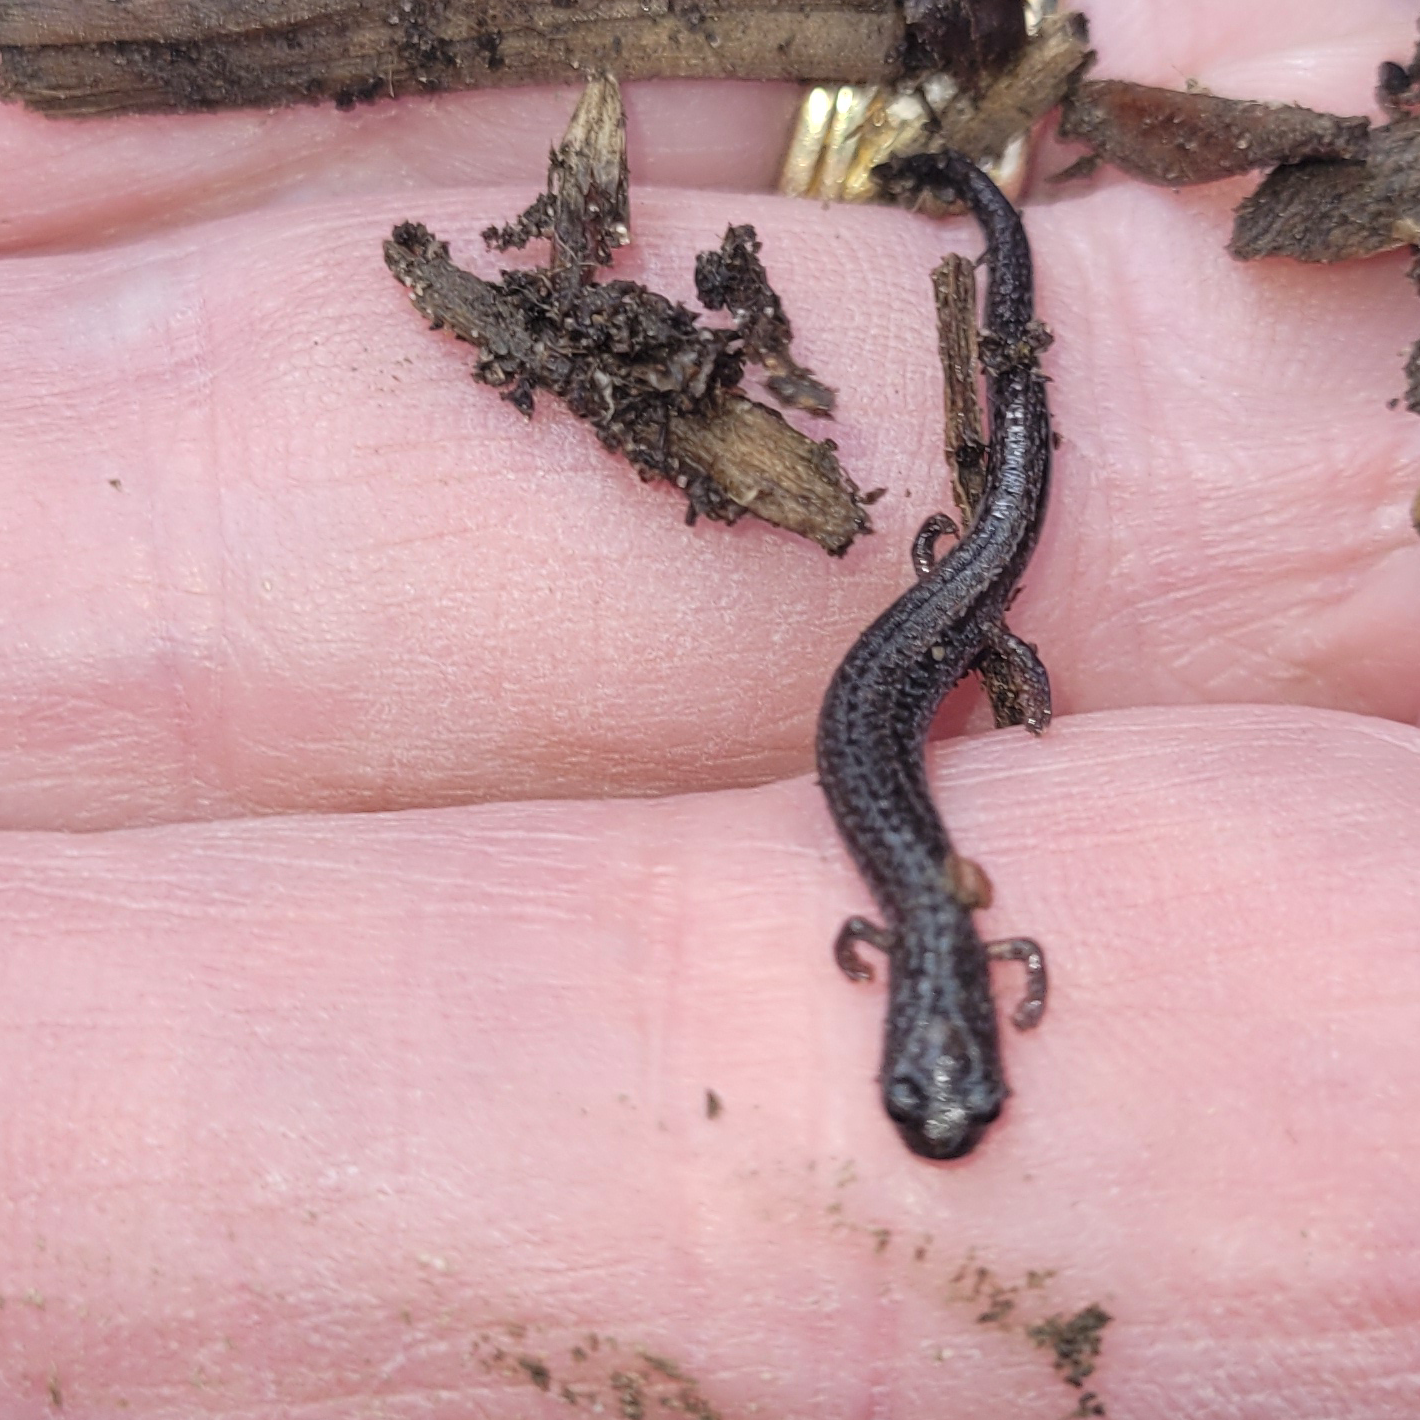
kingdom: Animalia
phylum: Chordata
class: Amphibia
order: Caudata
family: Plethodontidae
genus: Batrachoseps
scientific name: Batrachoseps attenuatus
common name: California slender salamander
